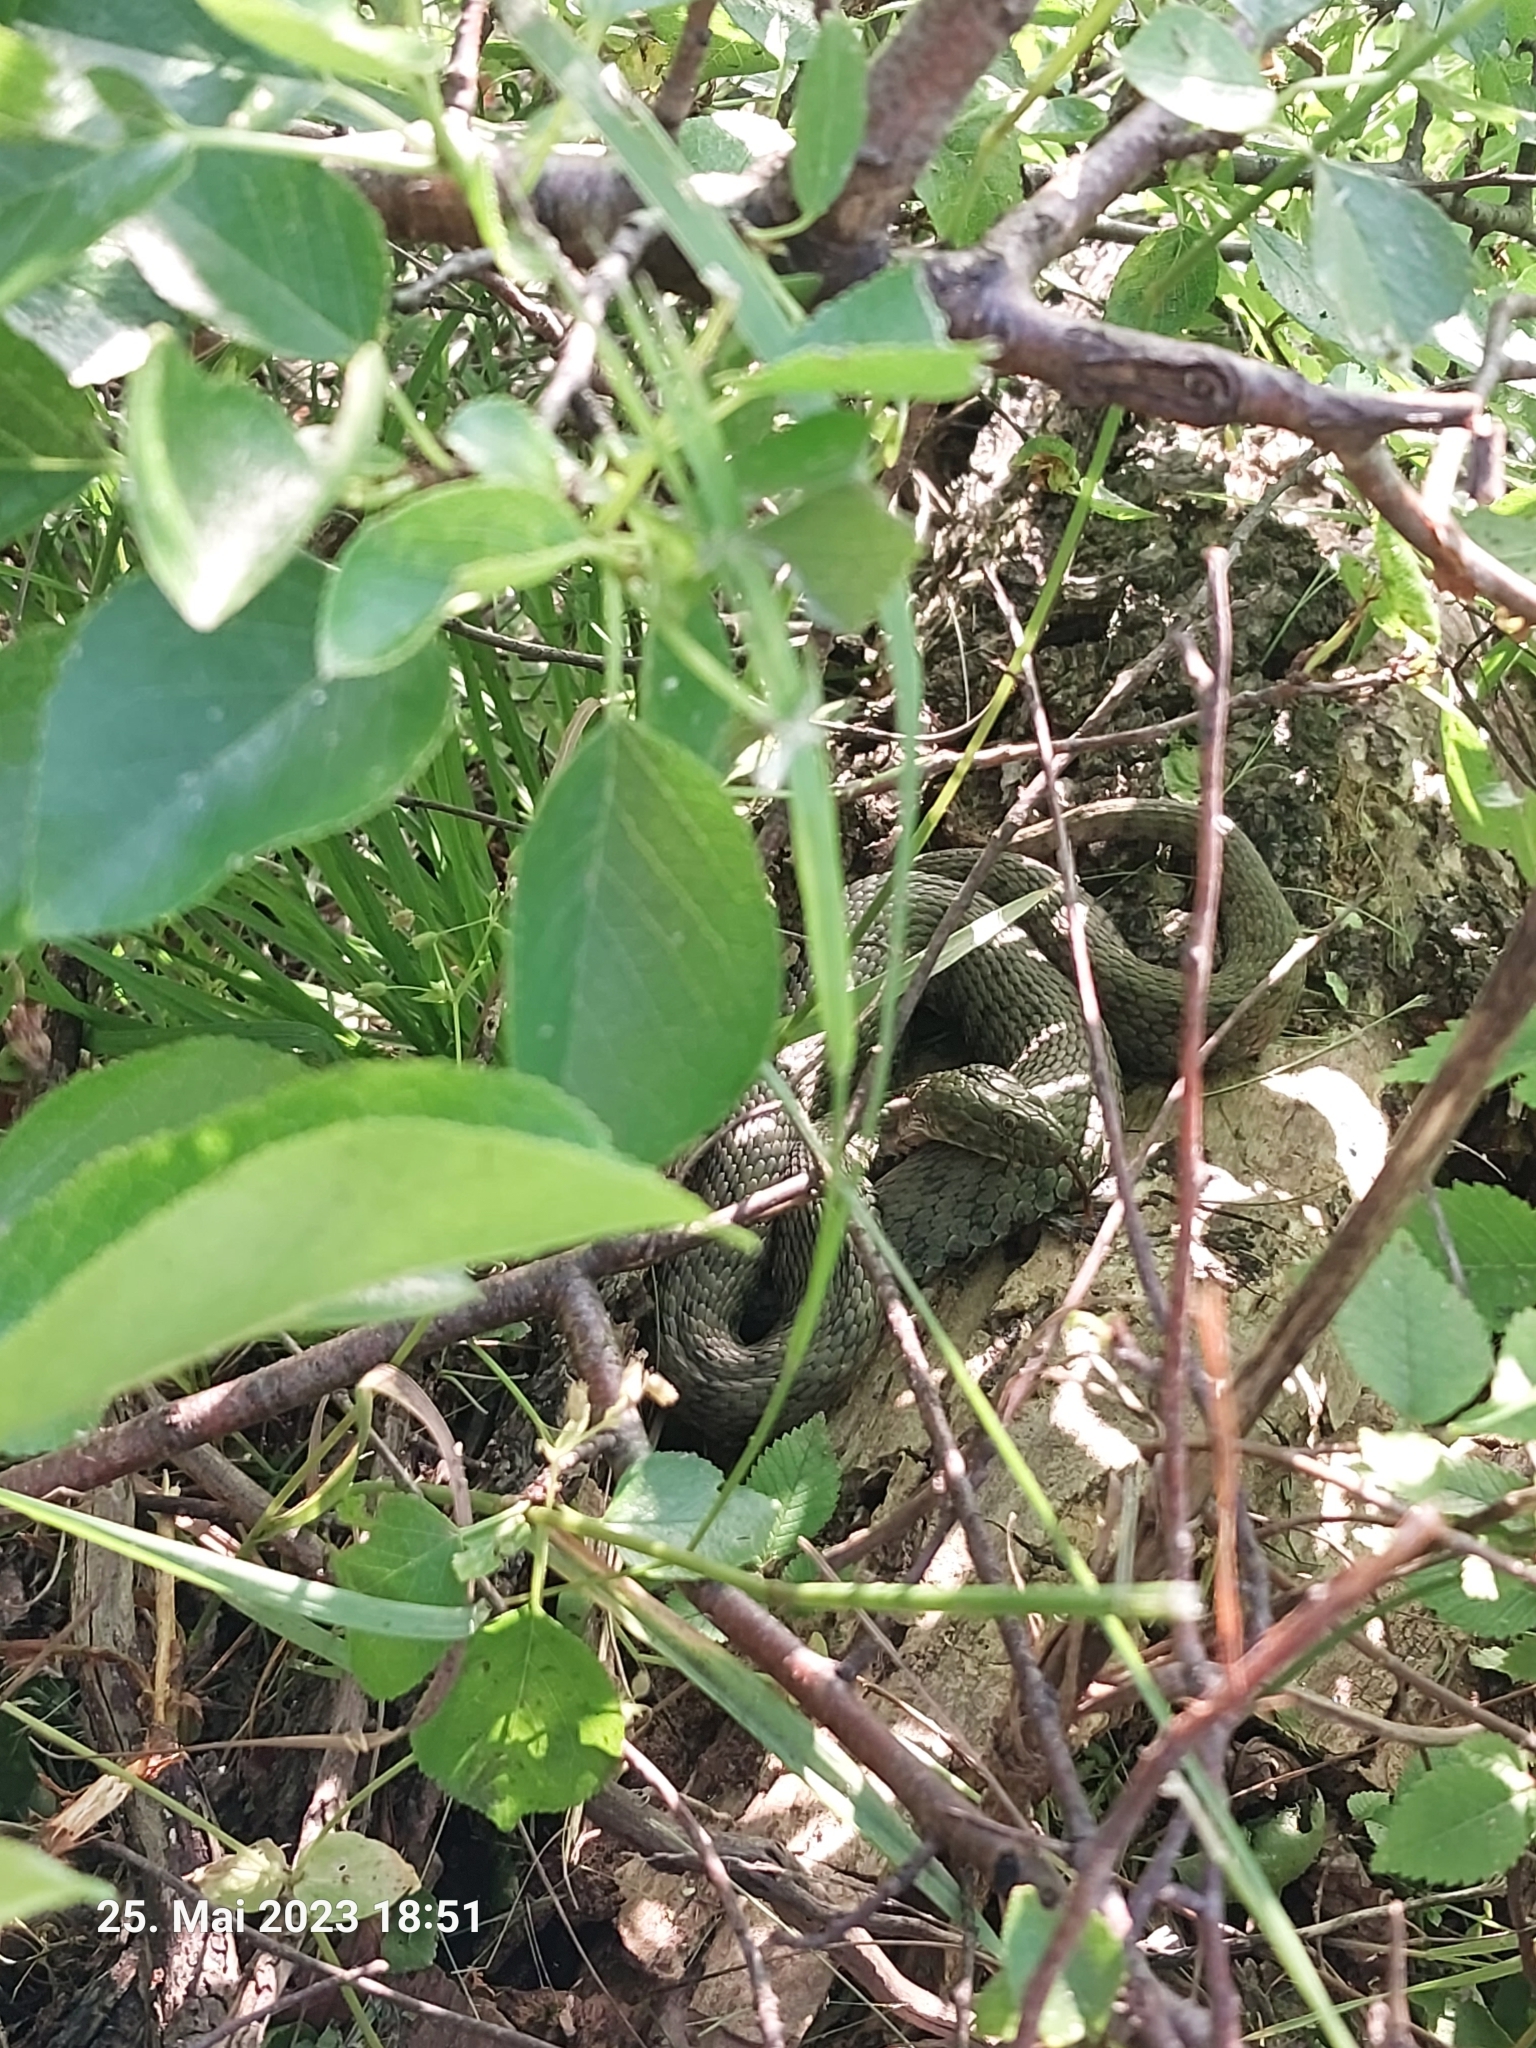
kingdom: Animalia
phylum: Chordata
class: Squamata
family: Colubridae
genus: Natrix
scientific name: Natrix tessellata
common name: Dice snake
